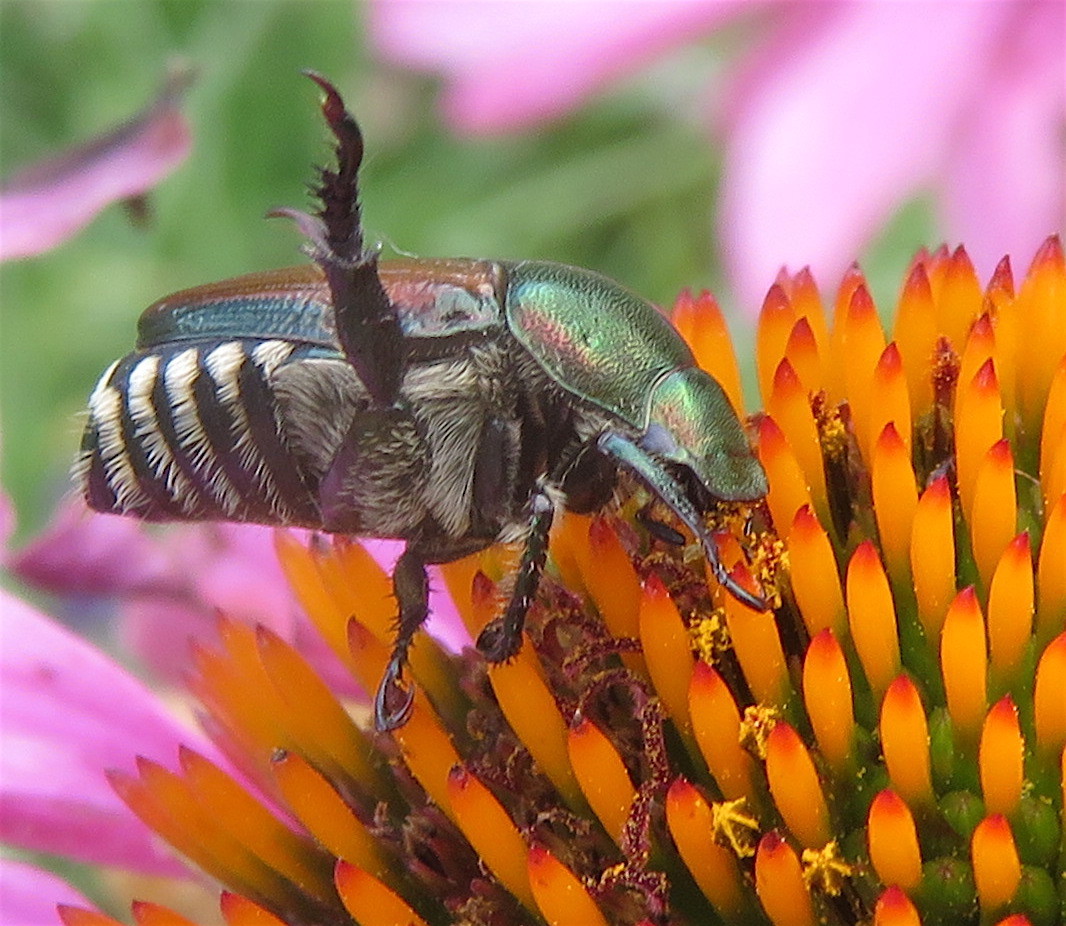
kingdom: Animalia
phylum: Arthropoda
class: Insecta
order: Coleoptera
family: Scarabaeidae
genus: Popillia
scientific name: Popillia japonica
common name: Japanese beetle
